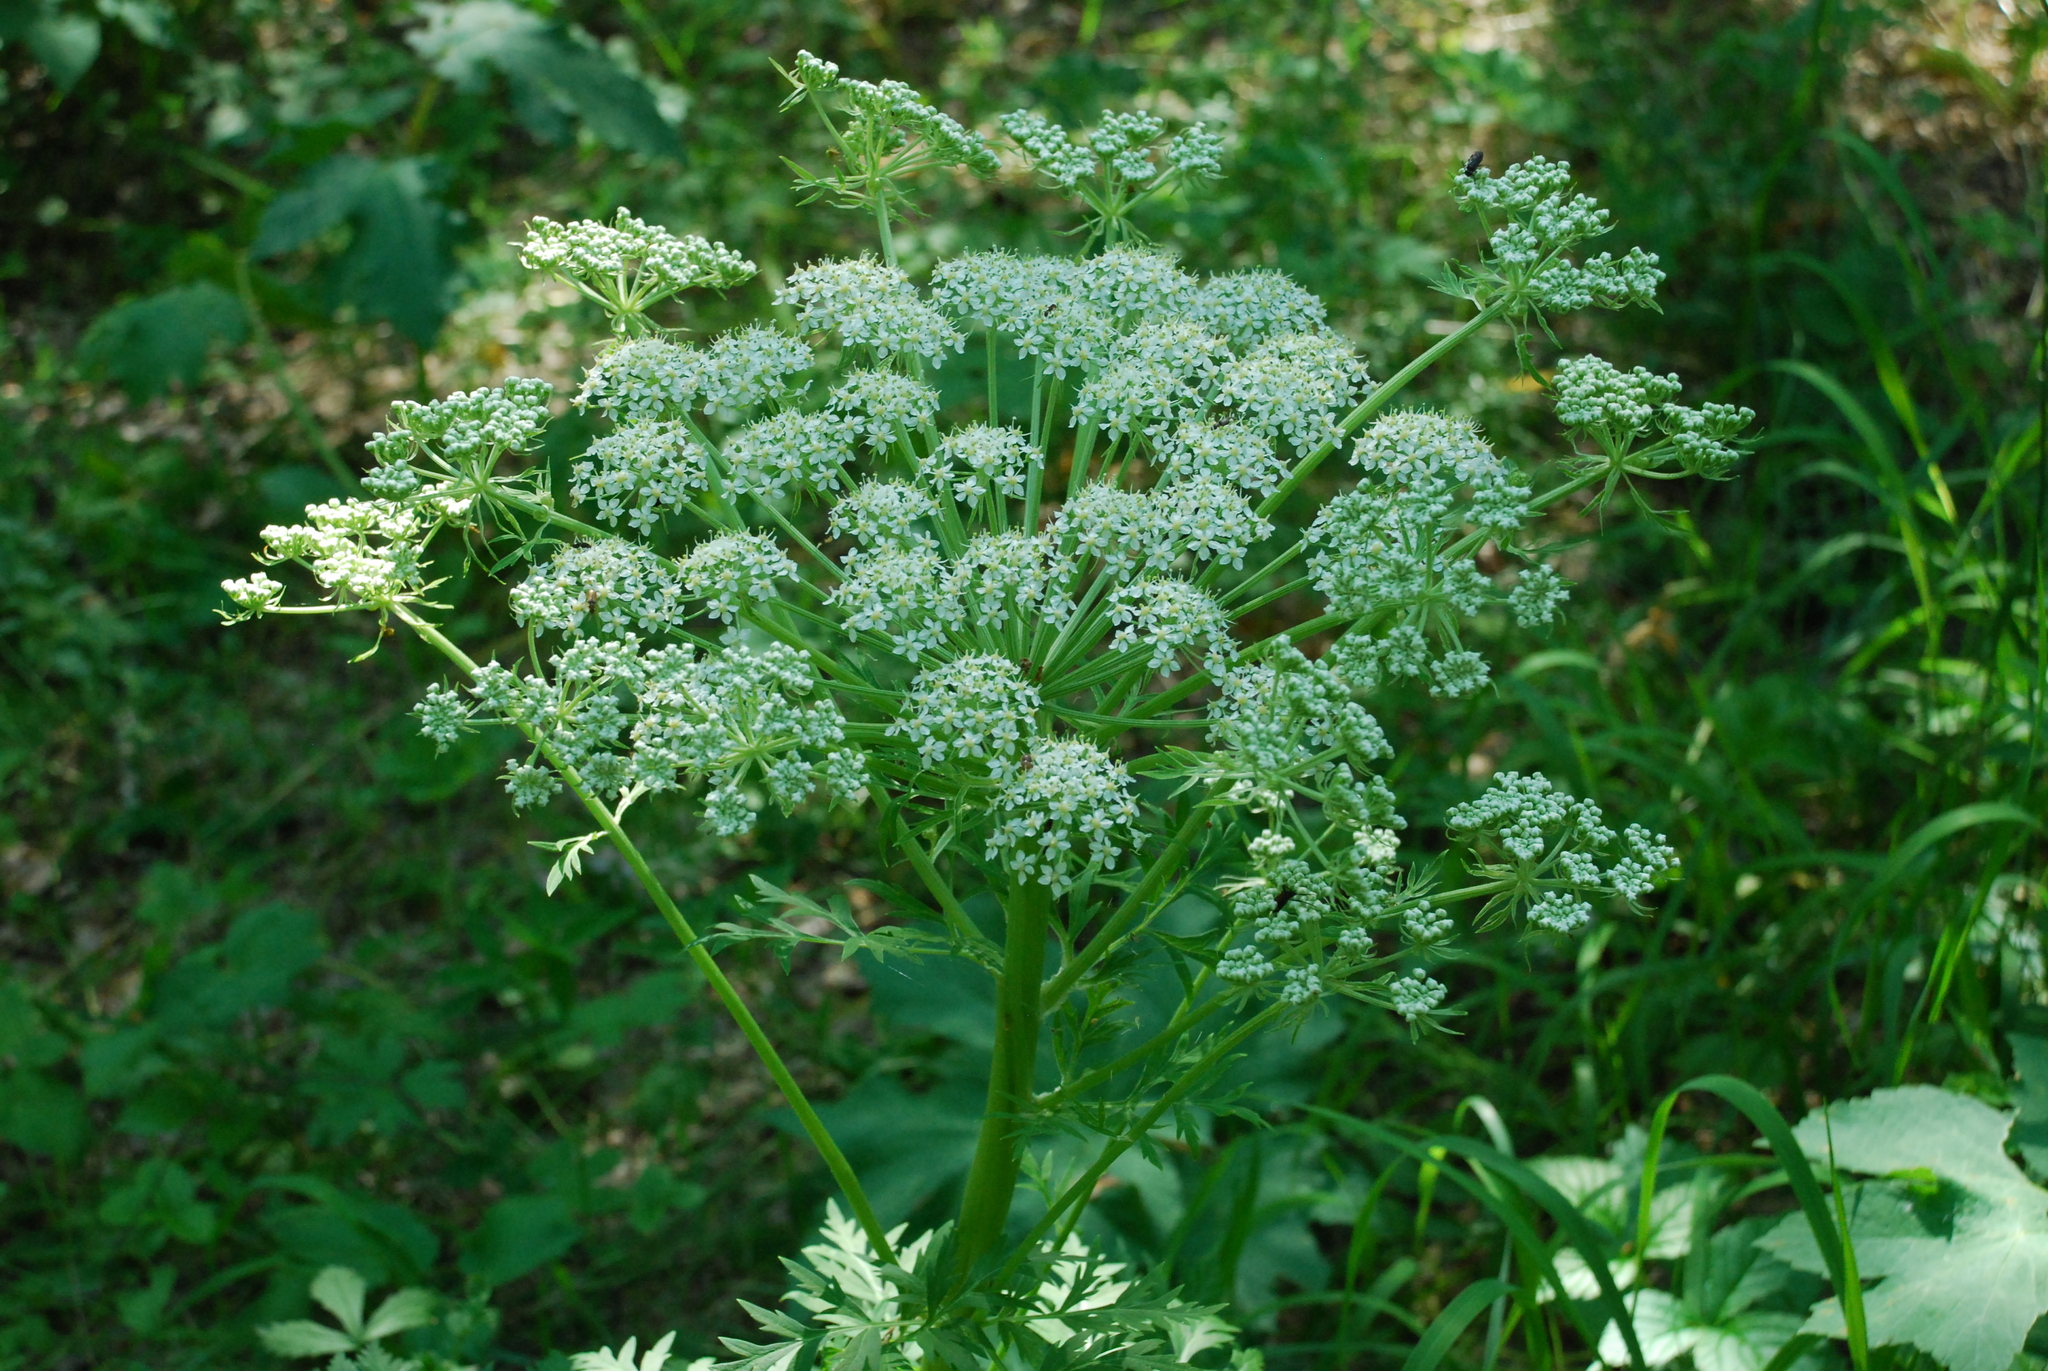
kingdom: Plantae
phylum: Tracheophyta
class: Magnoliopsida
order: Apiales
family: Apiaceae
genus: Pleurospermum
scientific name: Pleurospermum uralense
